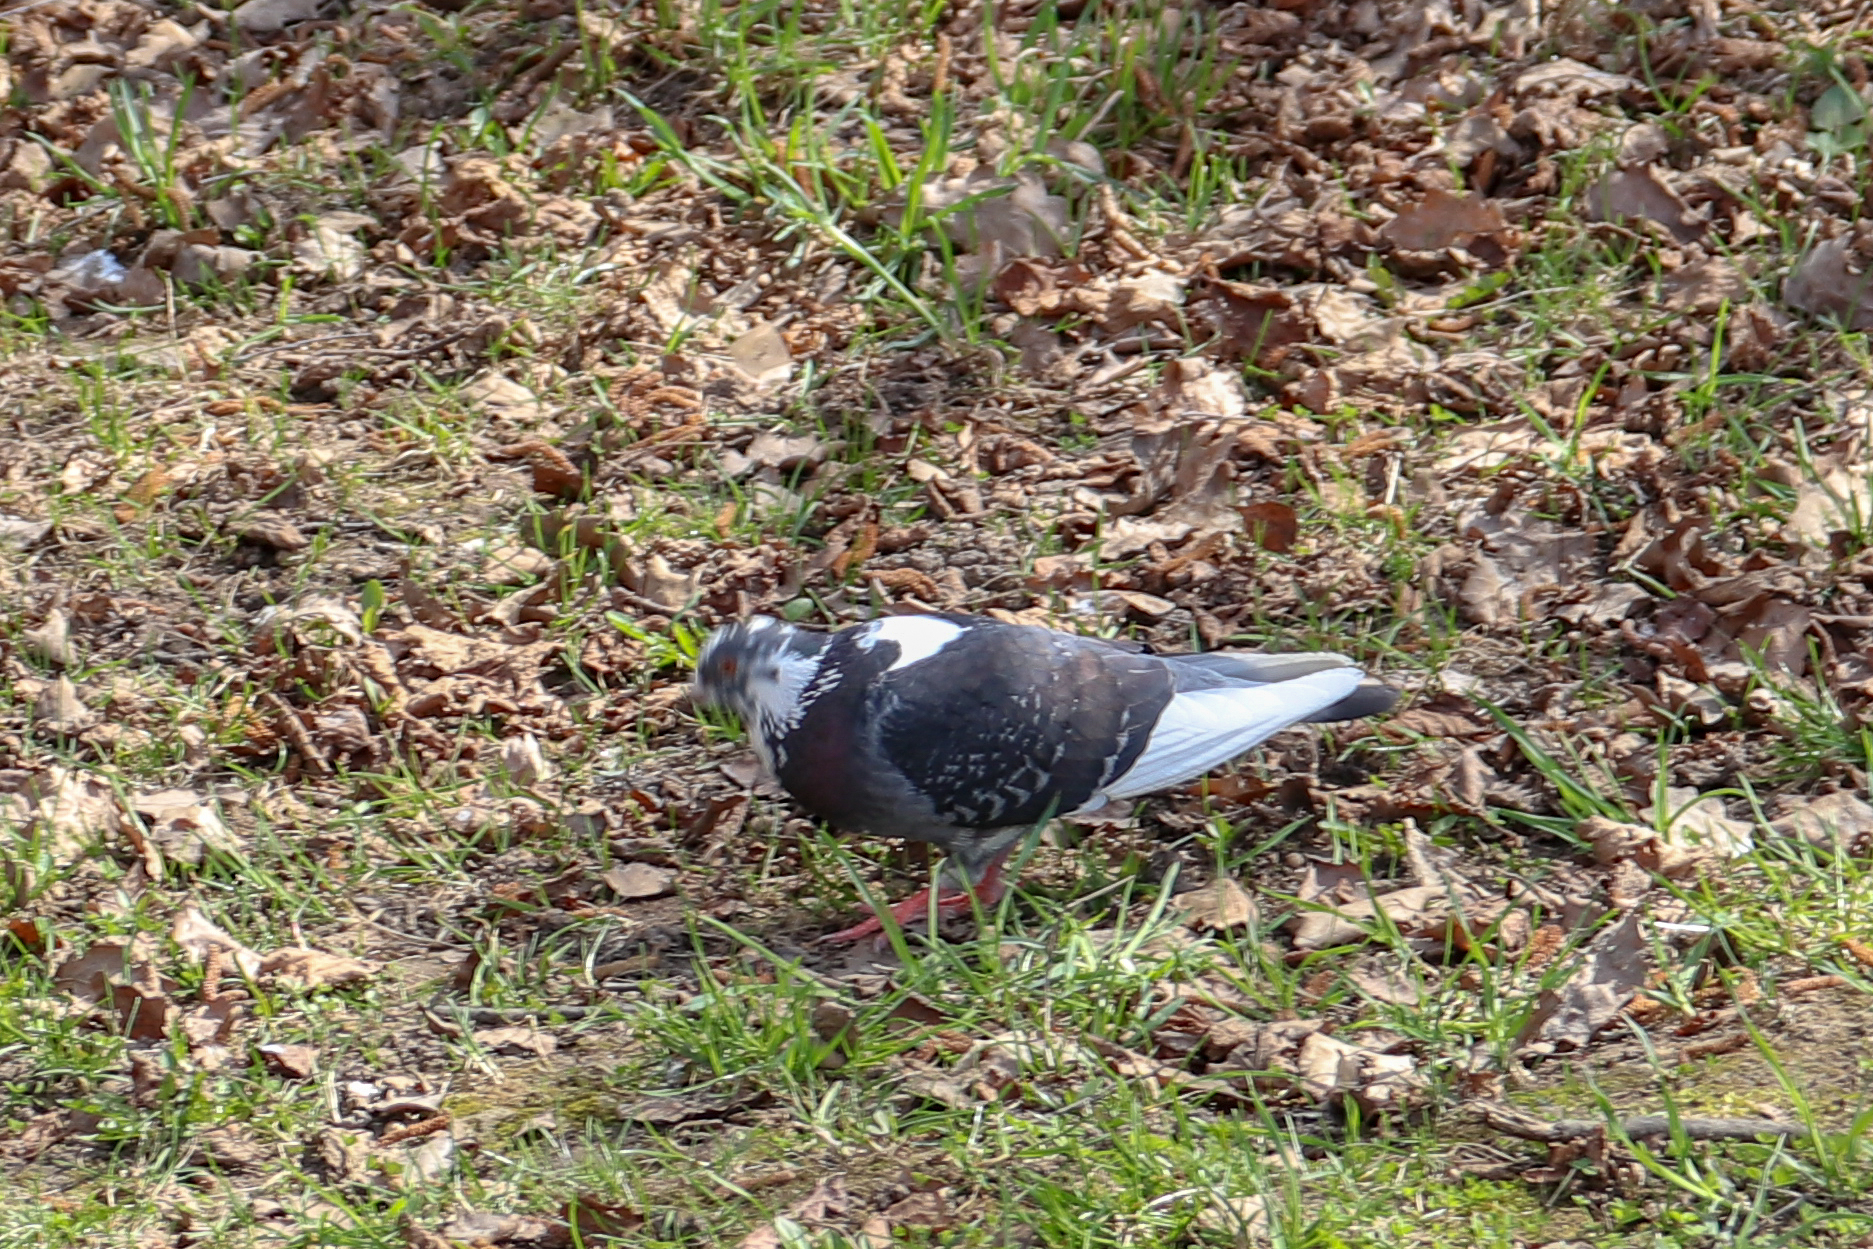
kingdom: Animalia
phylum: Chordata
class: Aves
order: Columbiformes
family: Columbidae
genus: Columba
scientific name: Columba livia
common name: Rock pigeon
